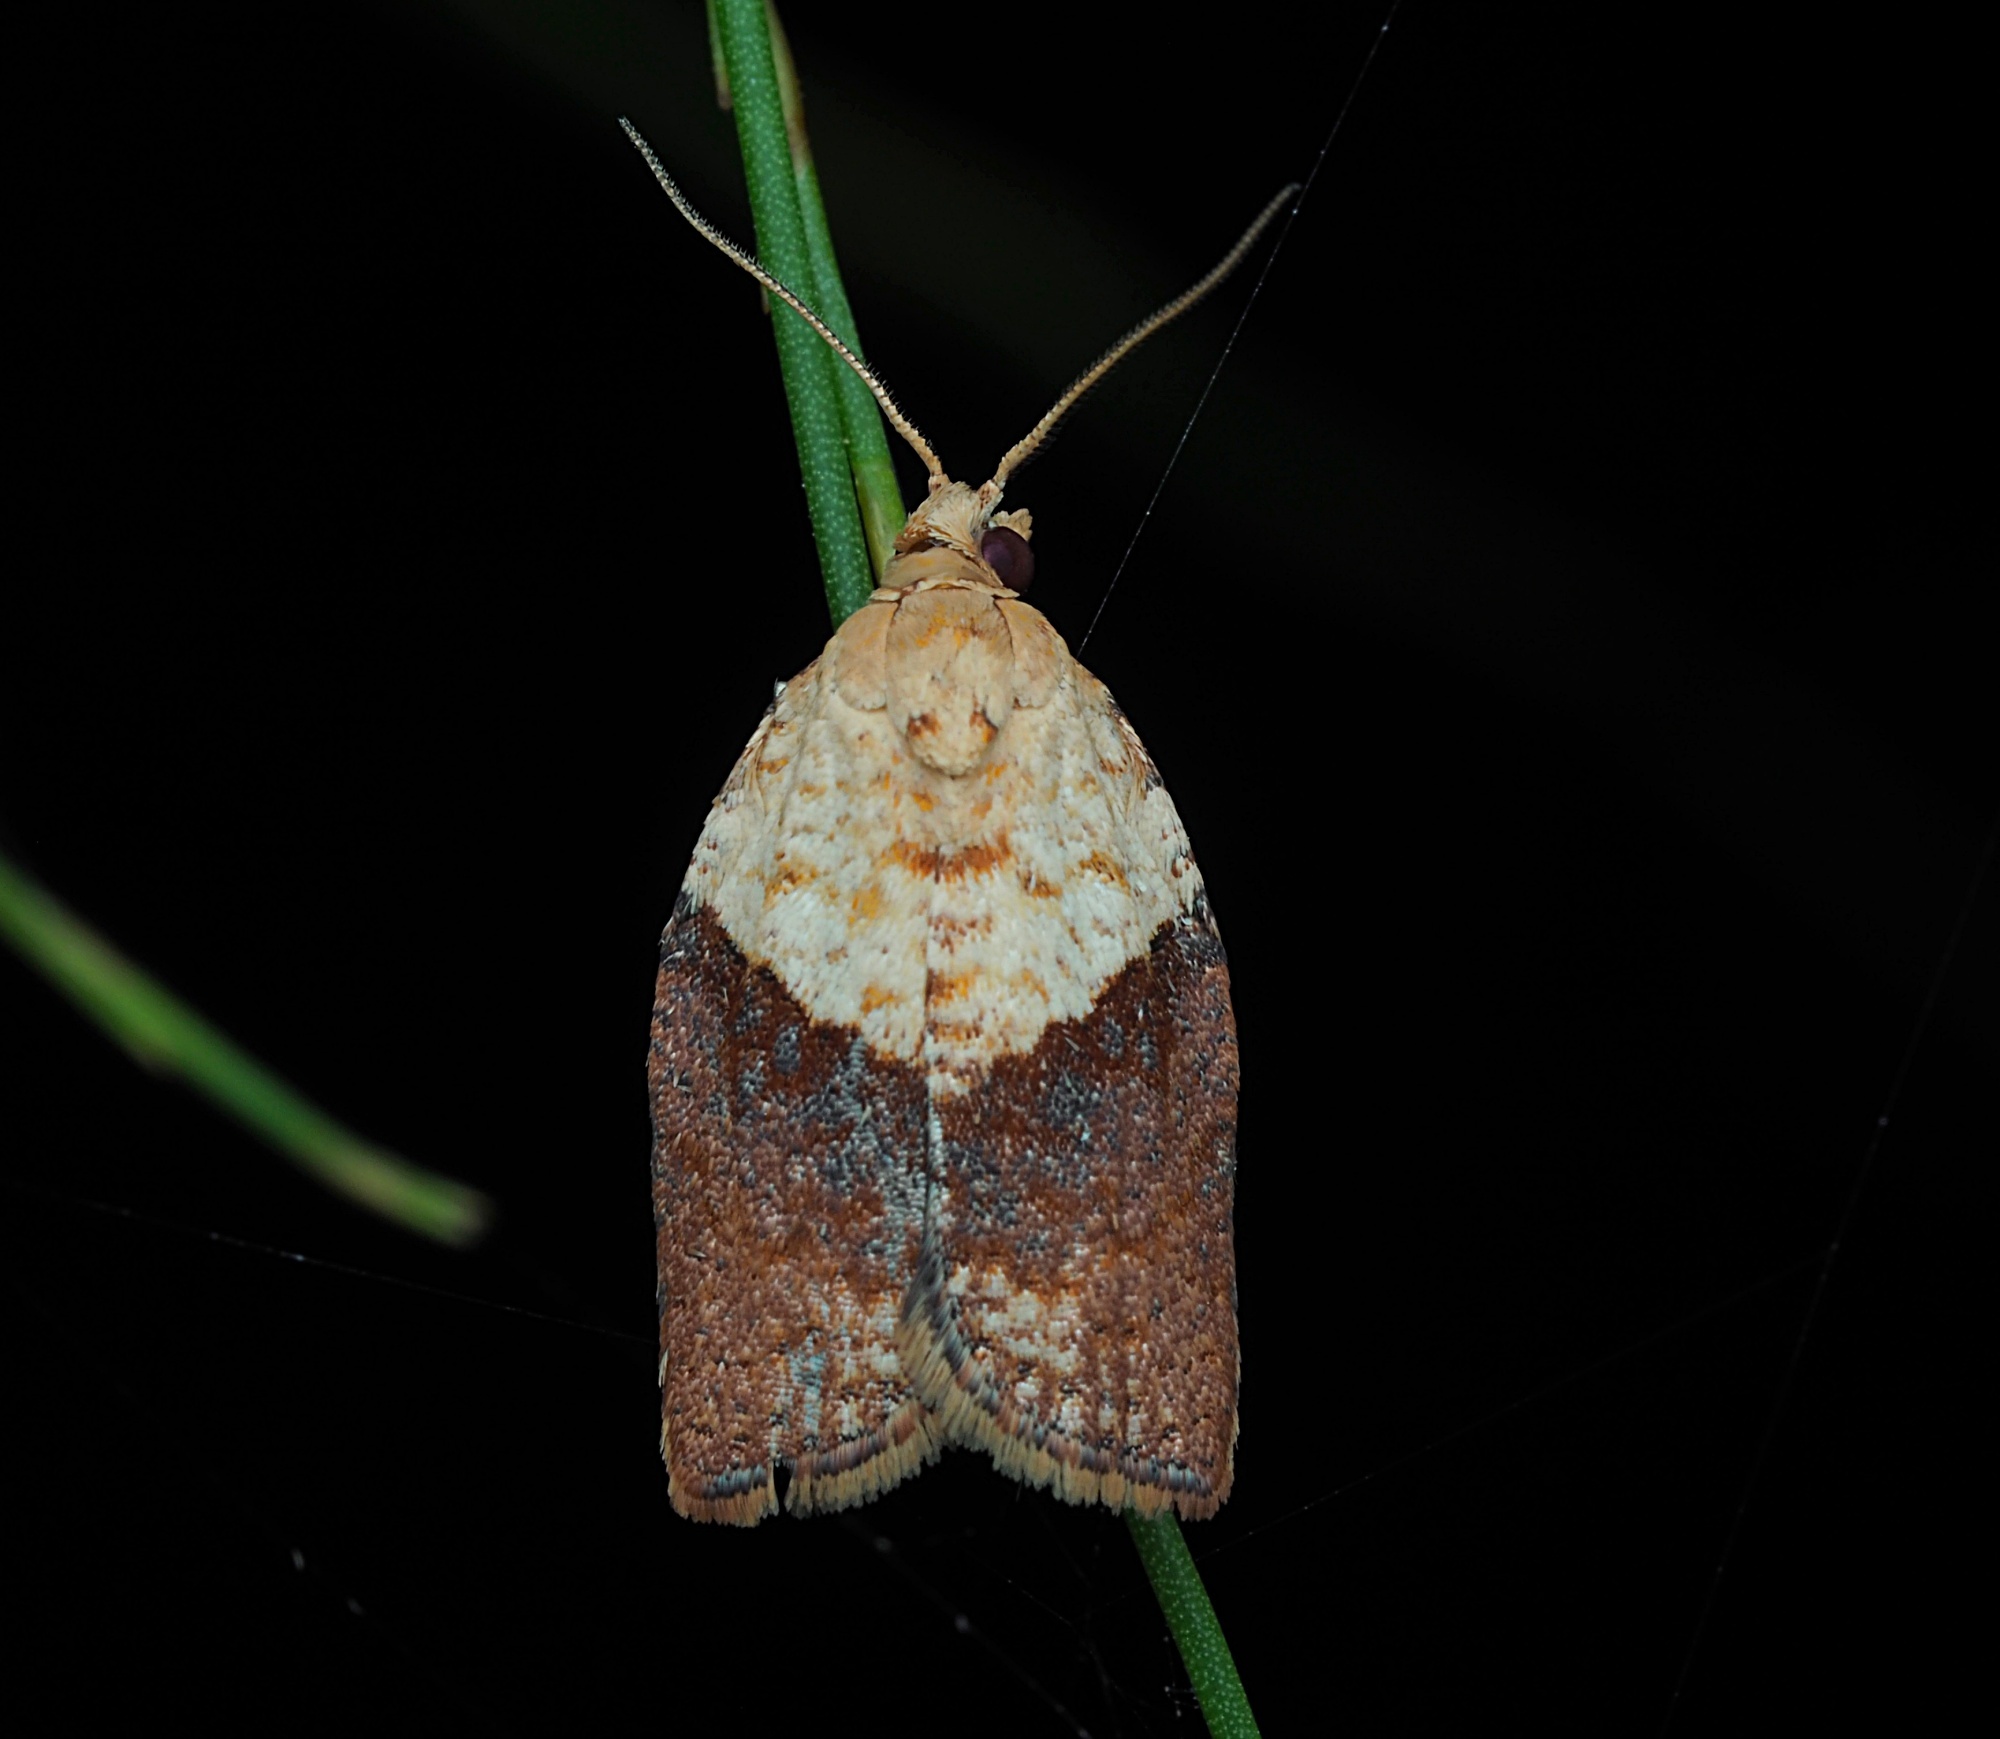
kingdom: Animalia
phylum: Arthropoda
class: Insecta
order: Lepidoptera
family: Tortricidae
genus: Epiphyas
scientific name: Epiphyas postvittana
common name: Light brown apple moth
